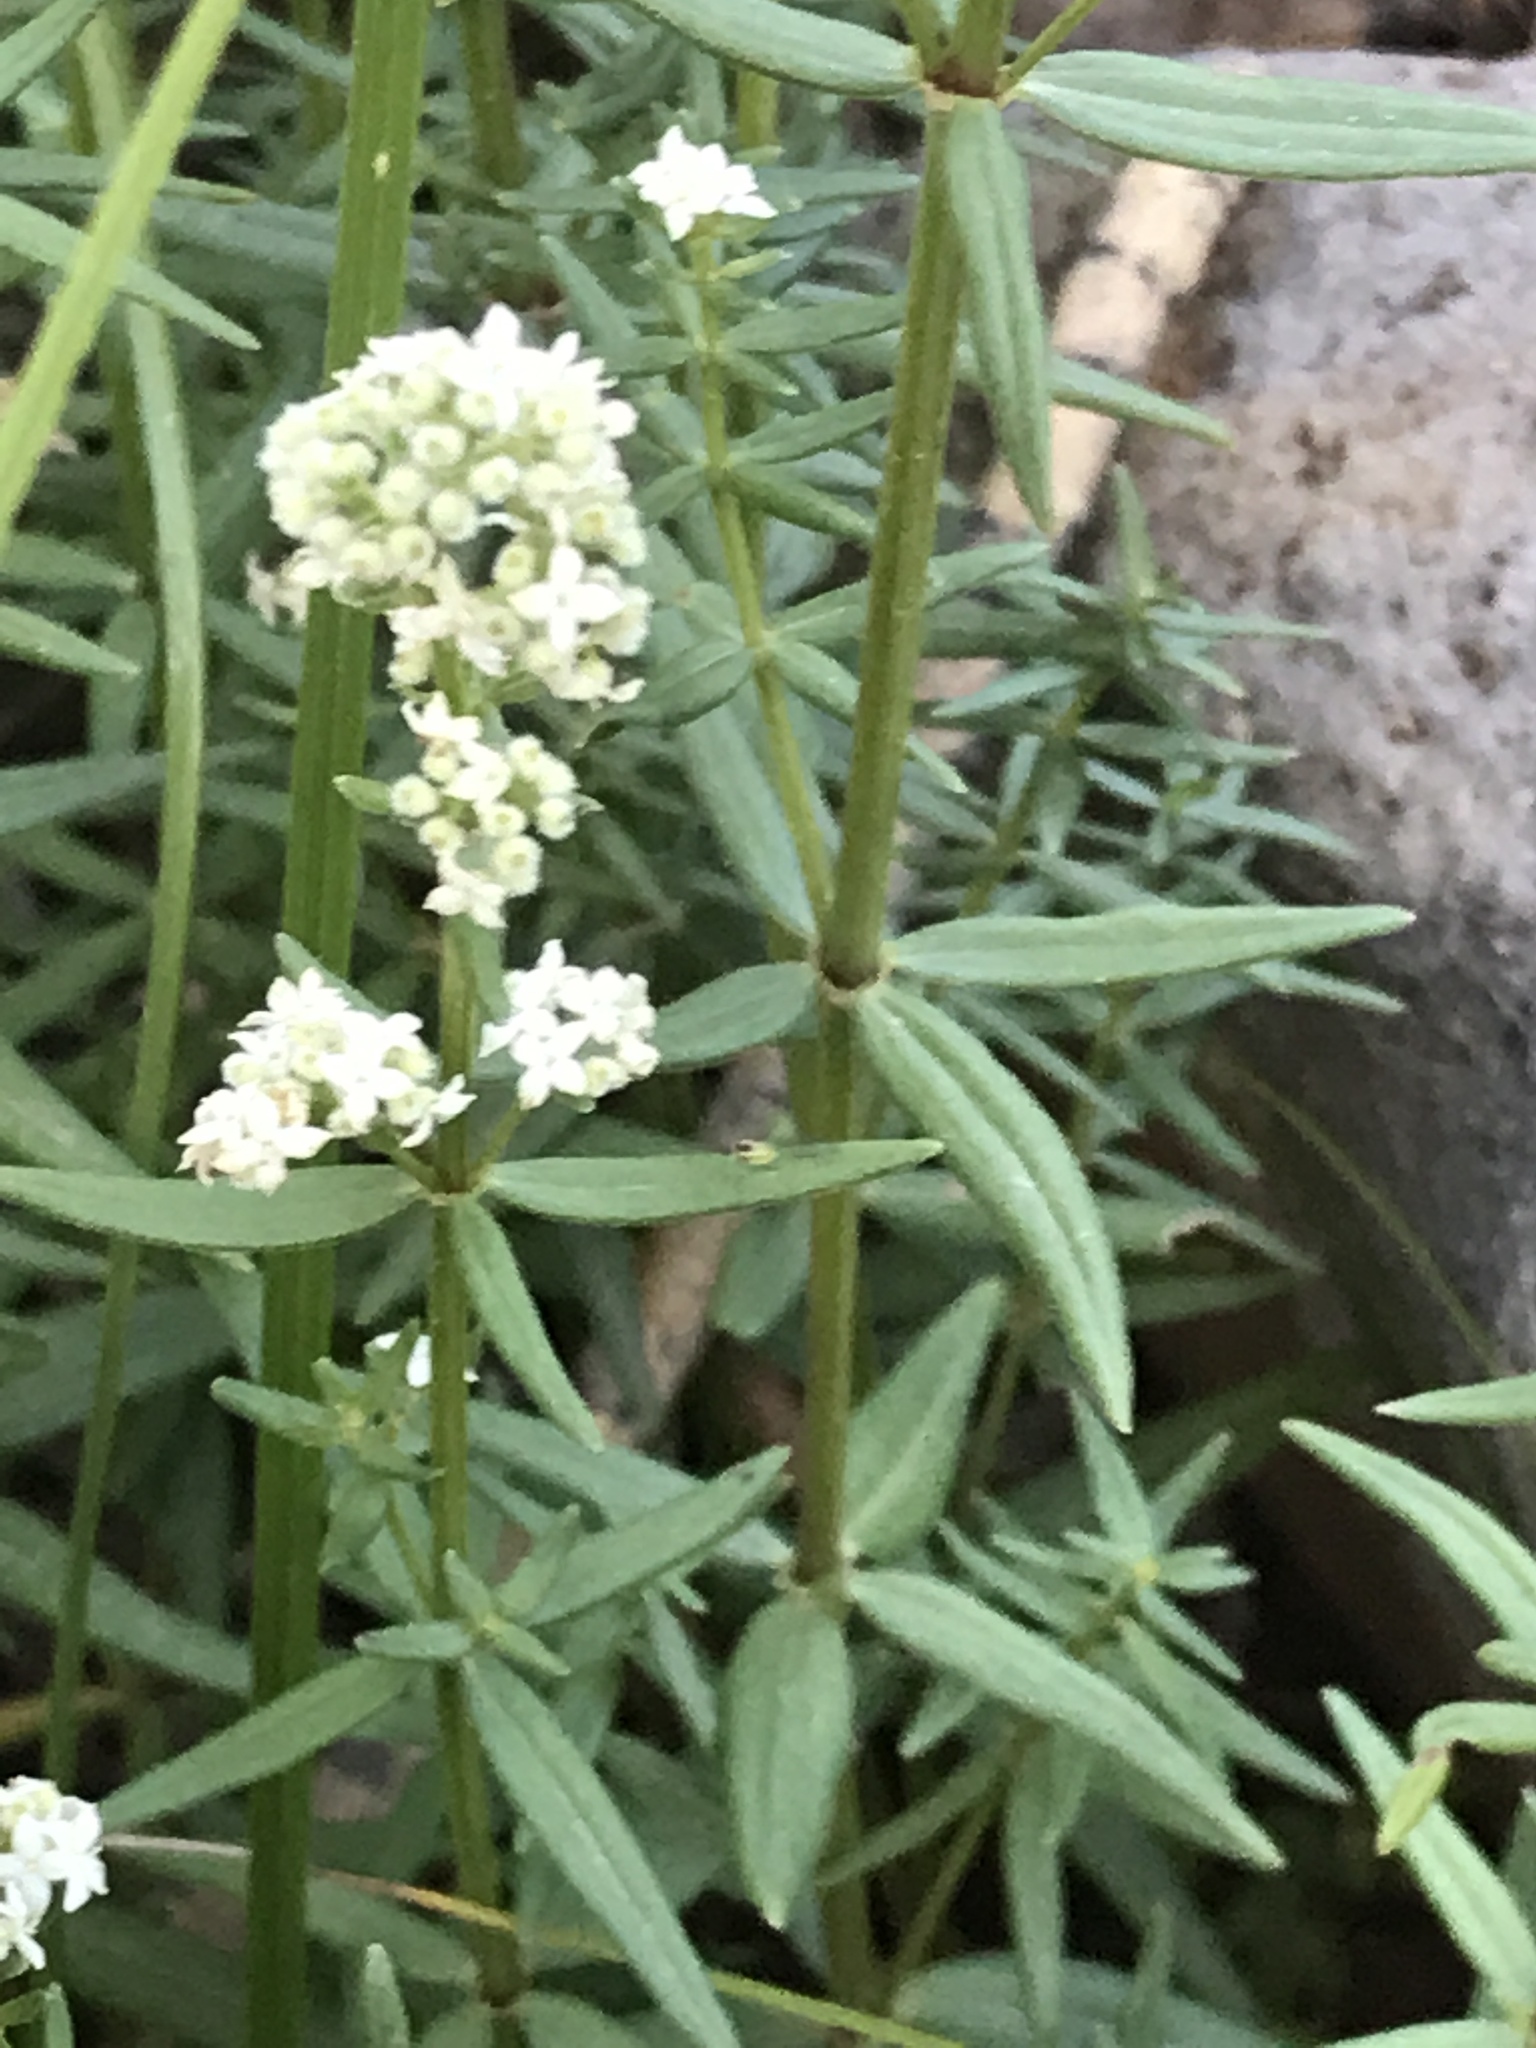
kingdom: Plantae
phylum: Tracheophyta
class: Magnoliopsida
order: Gentianales
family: Rubiaceae
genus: Galium
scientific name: Galium boreale
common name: Northern bedstraw
